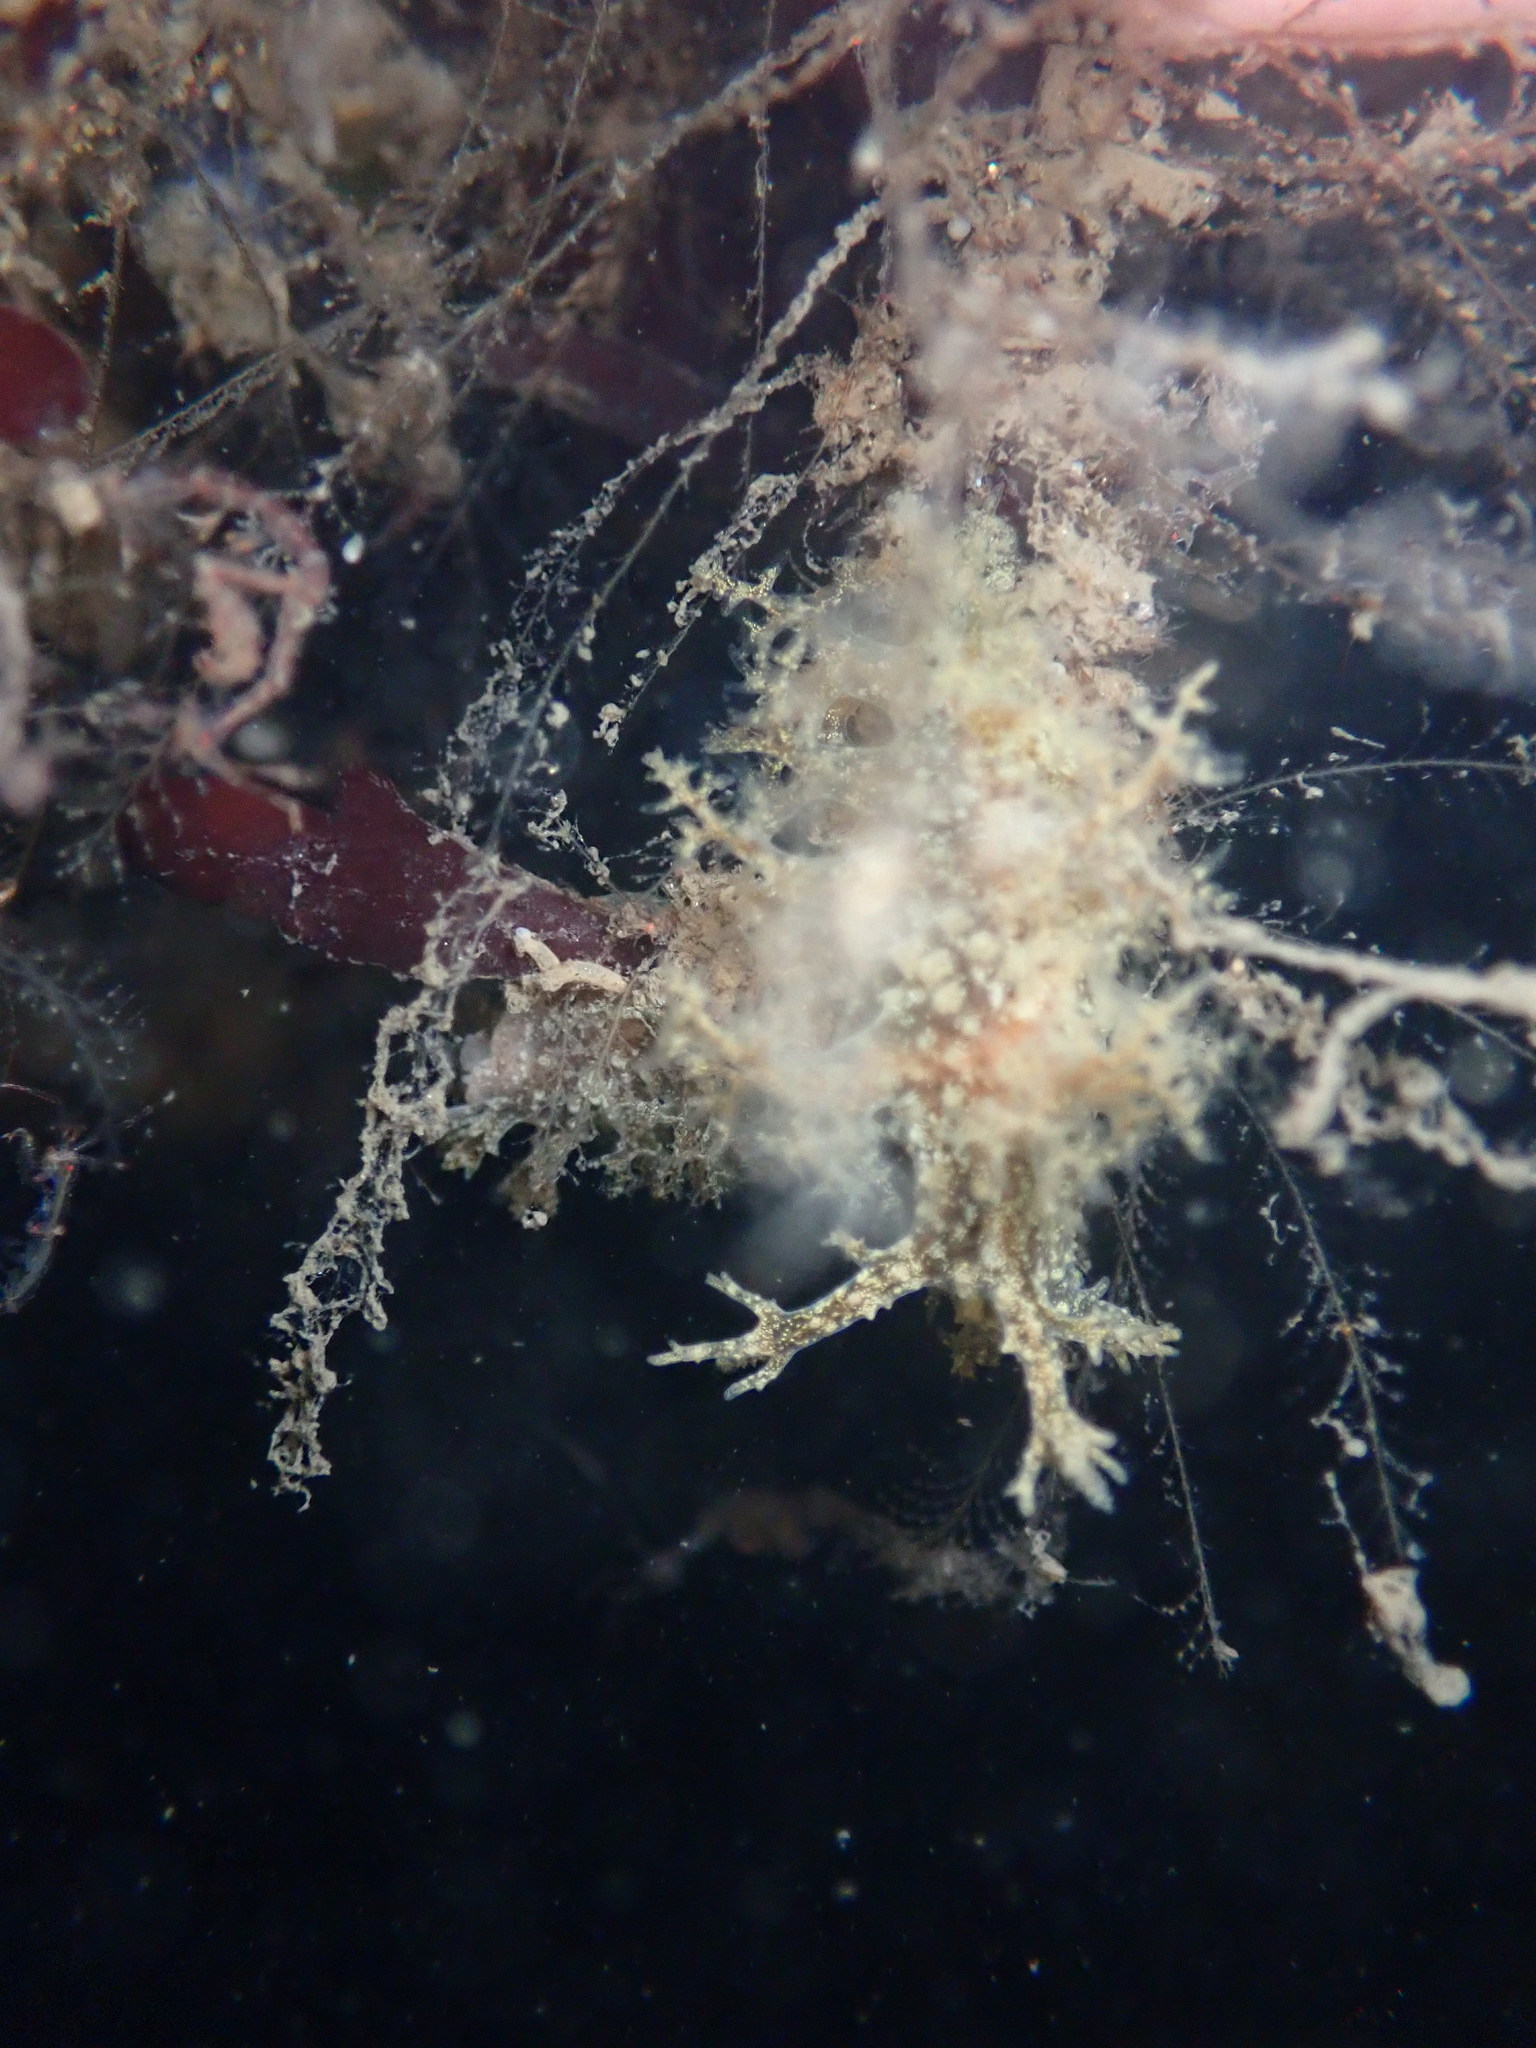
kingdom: Animalia
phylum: Mollusca
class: Gastropoda
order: Nudibranchia
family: Dendronotidae
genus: Dendronotus
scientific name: Dendronotus venustus
